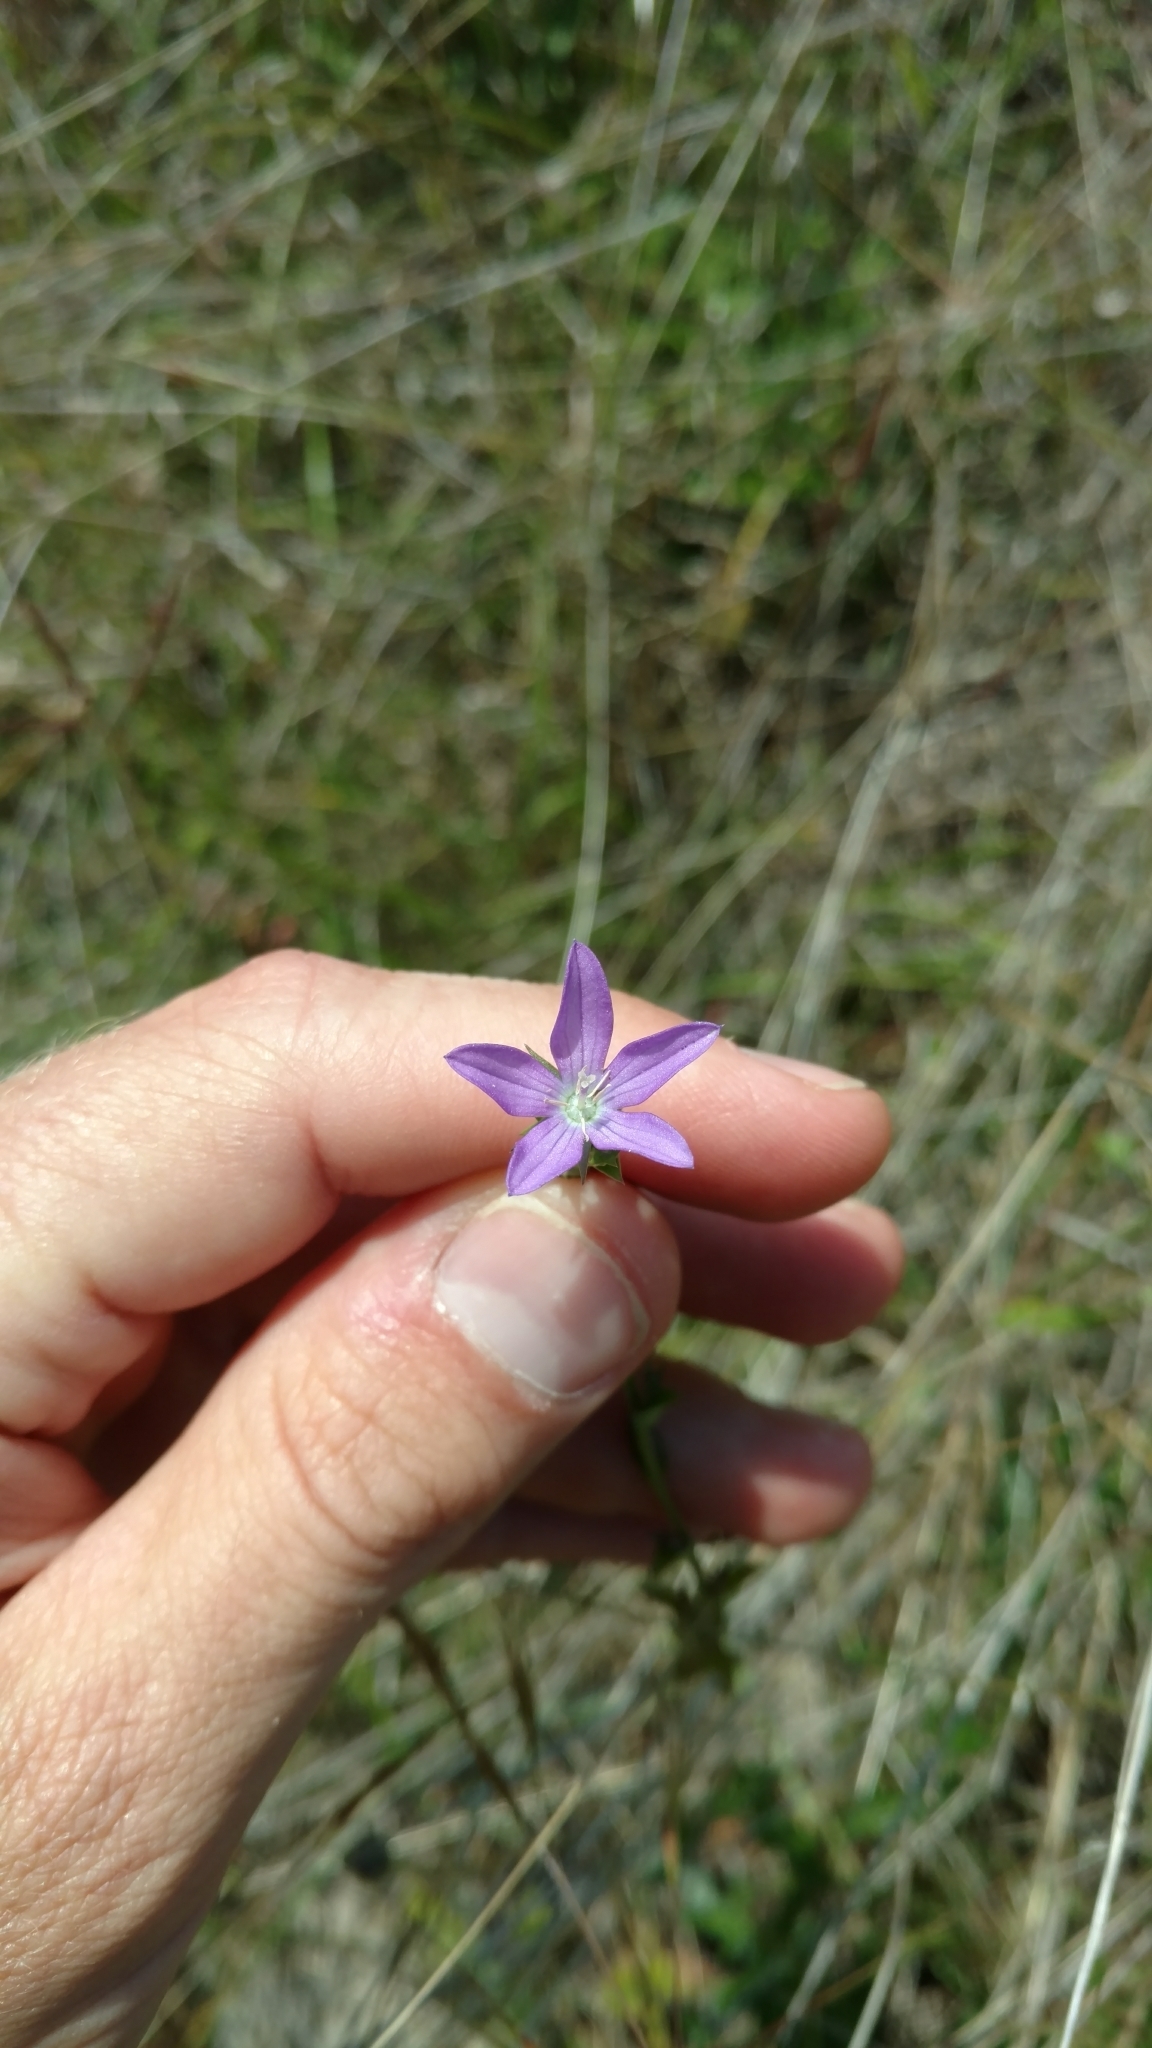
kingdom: Plantae
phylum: Tracheophyta
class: Magnoliopsida
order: Asterales
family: Campanulaceae
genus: Triodanis
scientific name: Triodanis biflora
